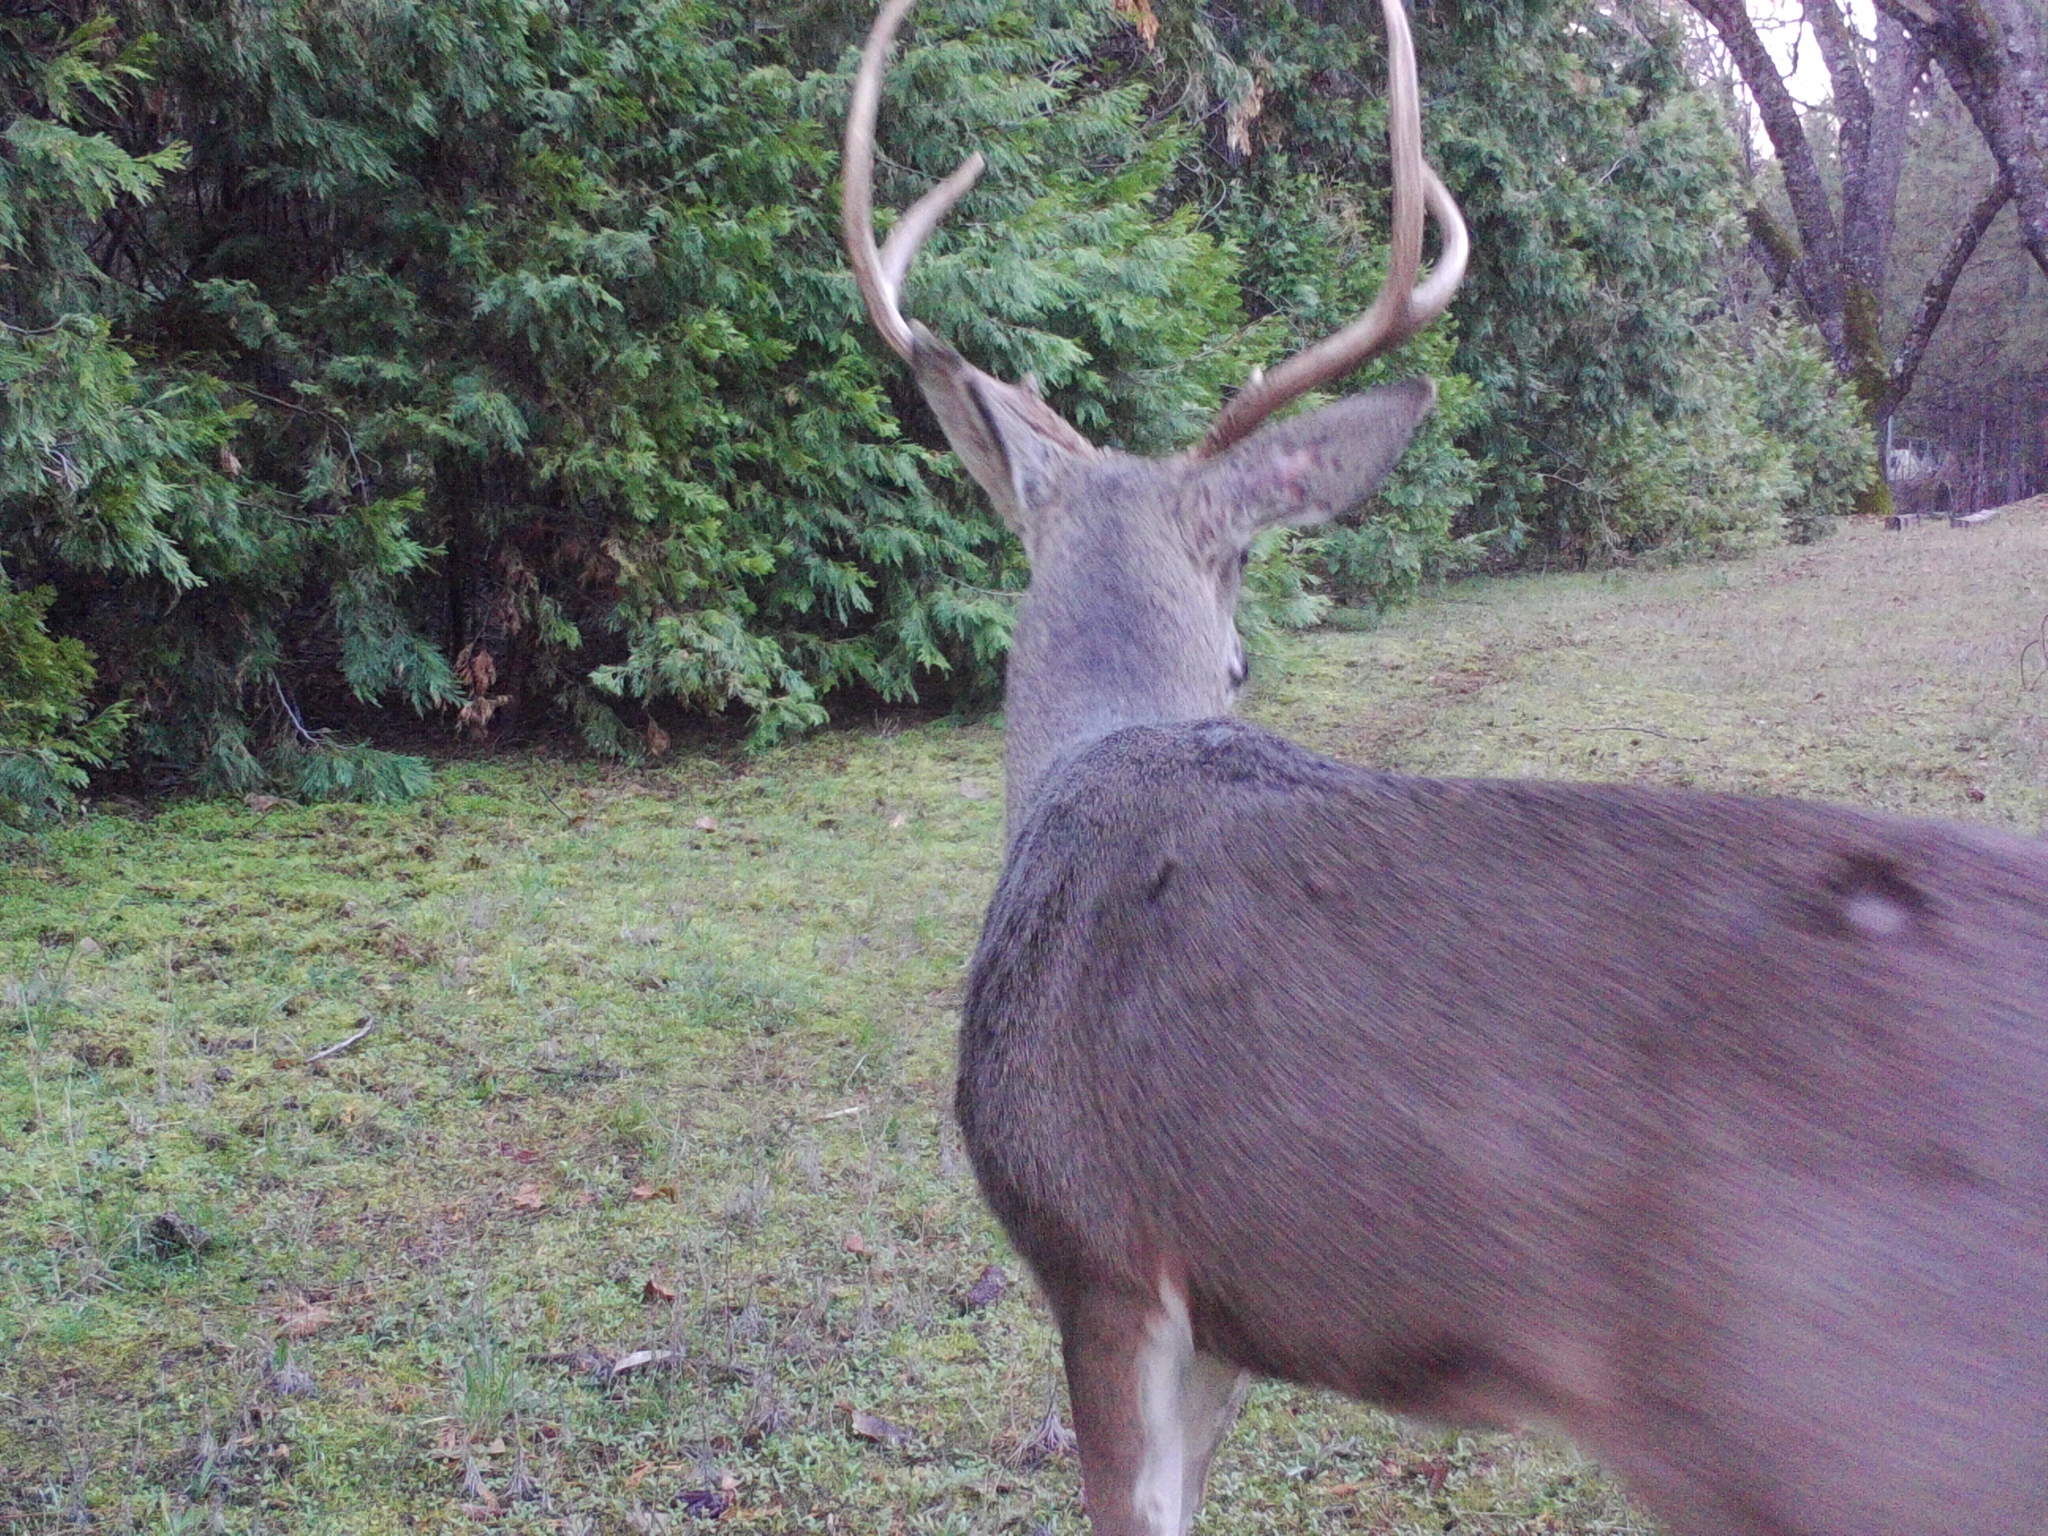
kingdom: Animalia
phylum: Chordata
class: Mammalia
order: Artiodactyla
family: Cervidae
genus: Odocoileus
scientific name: Odocoileus hemionus
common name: Mule deer
